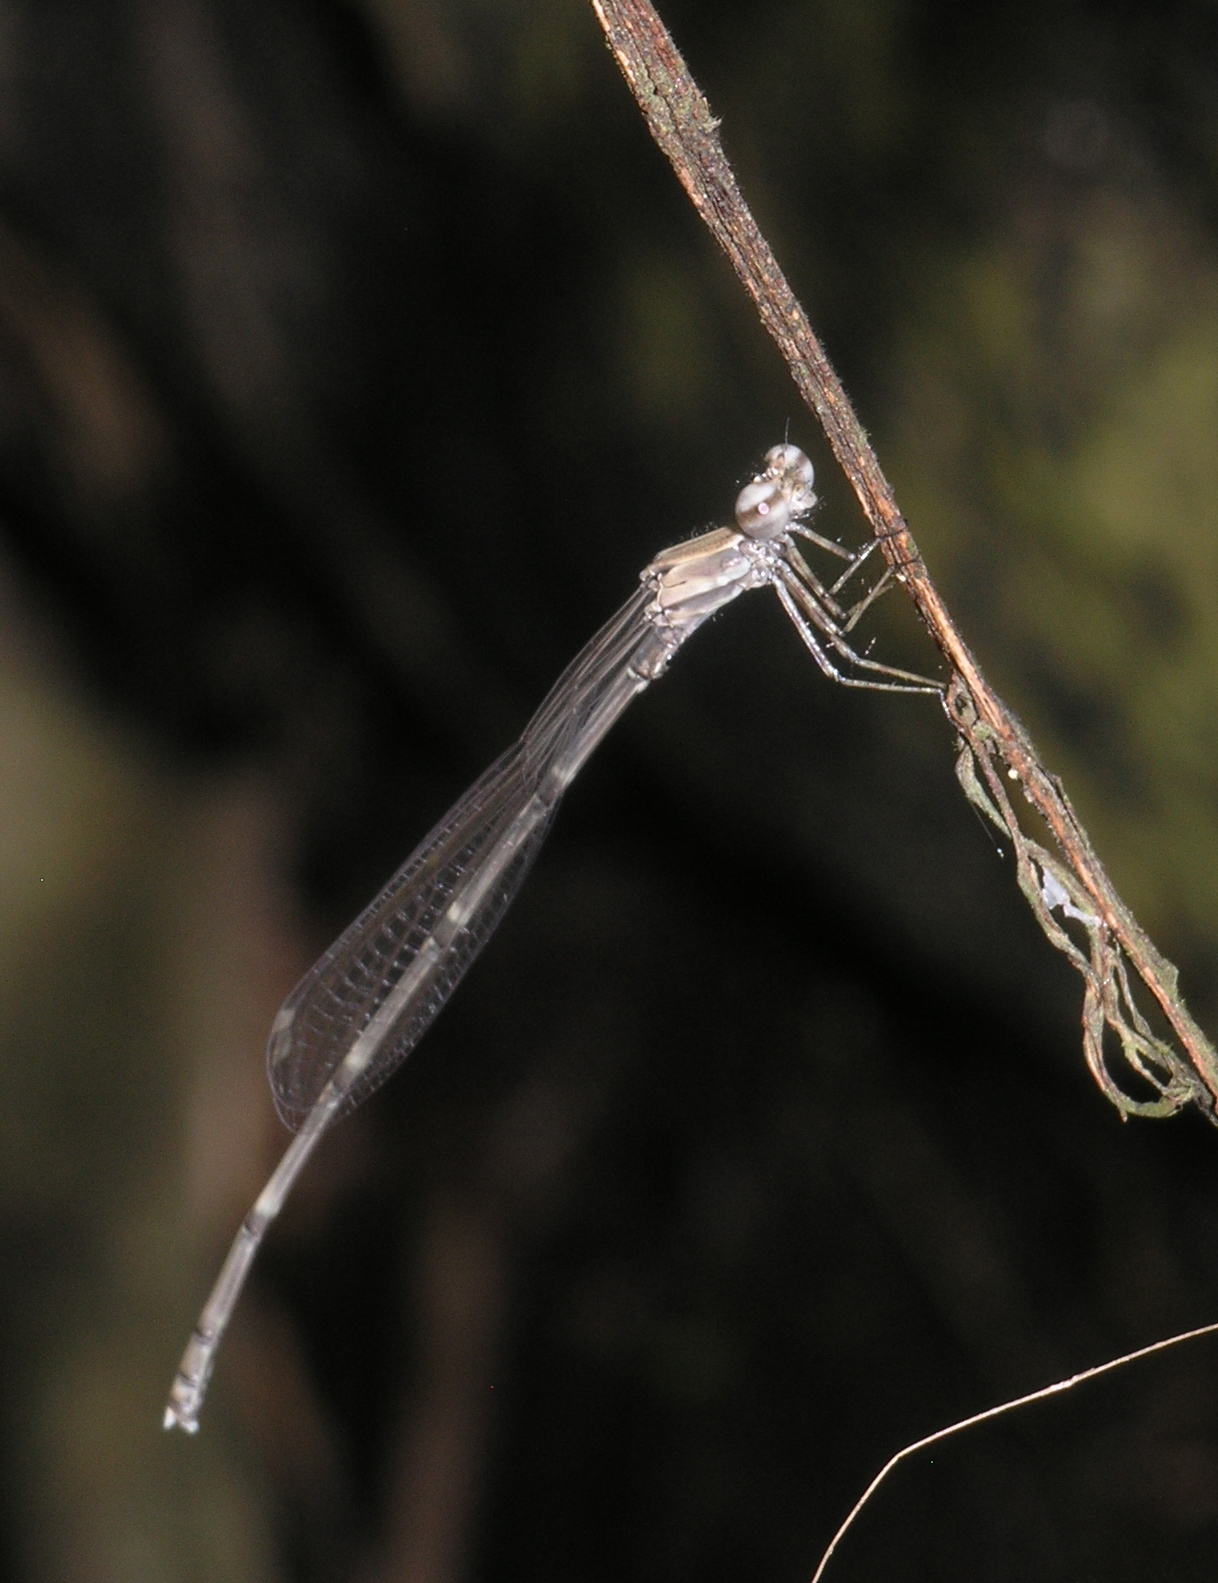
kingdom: Animalia
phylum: Arthropoda
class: Insecta
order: Odonata
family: Platycnemididae
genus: Prodasineura
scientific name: Prodasineura autumnalis
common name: Black threadtail
